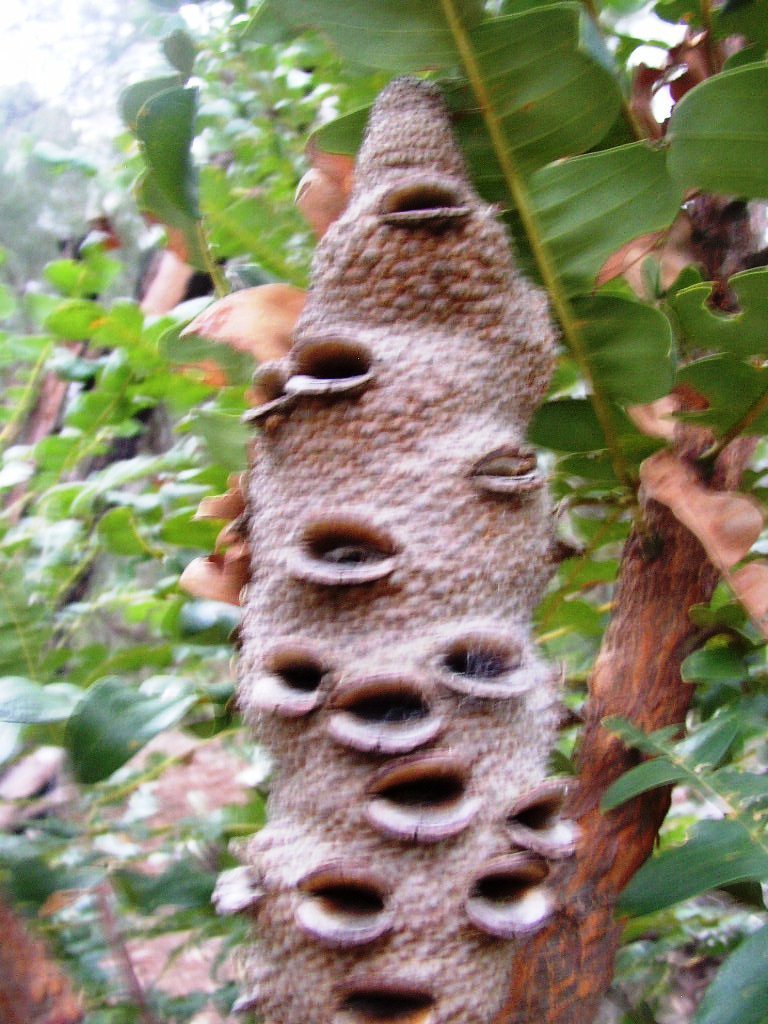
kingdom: Plantae
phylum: Tracheophyta
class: Magnoliopsida
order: Proteales
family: Proteaceae
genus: Banksia
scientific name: Banksia grandis
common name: Giant banksia
